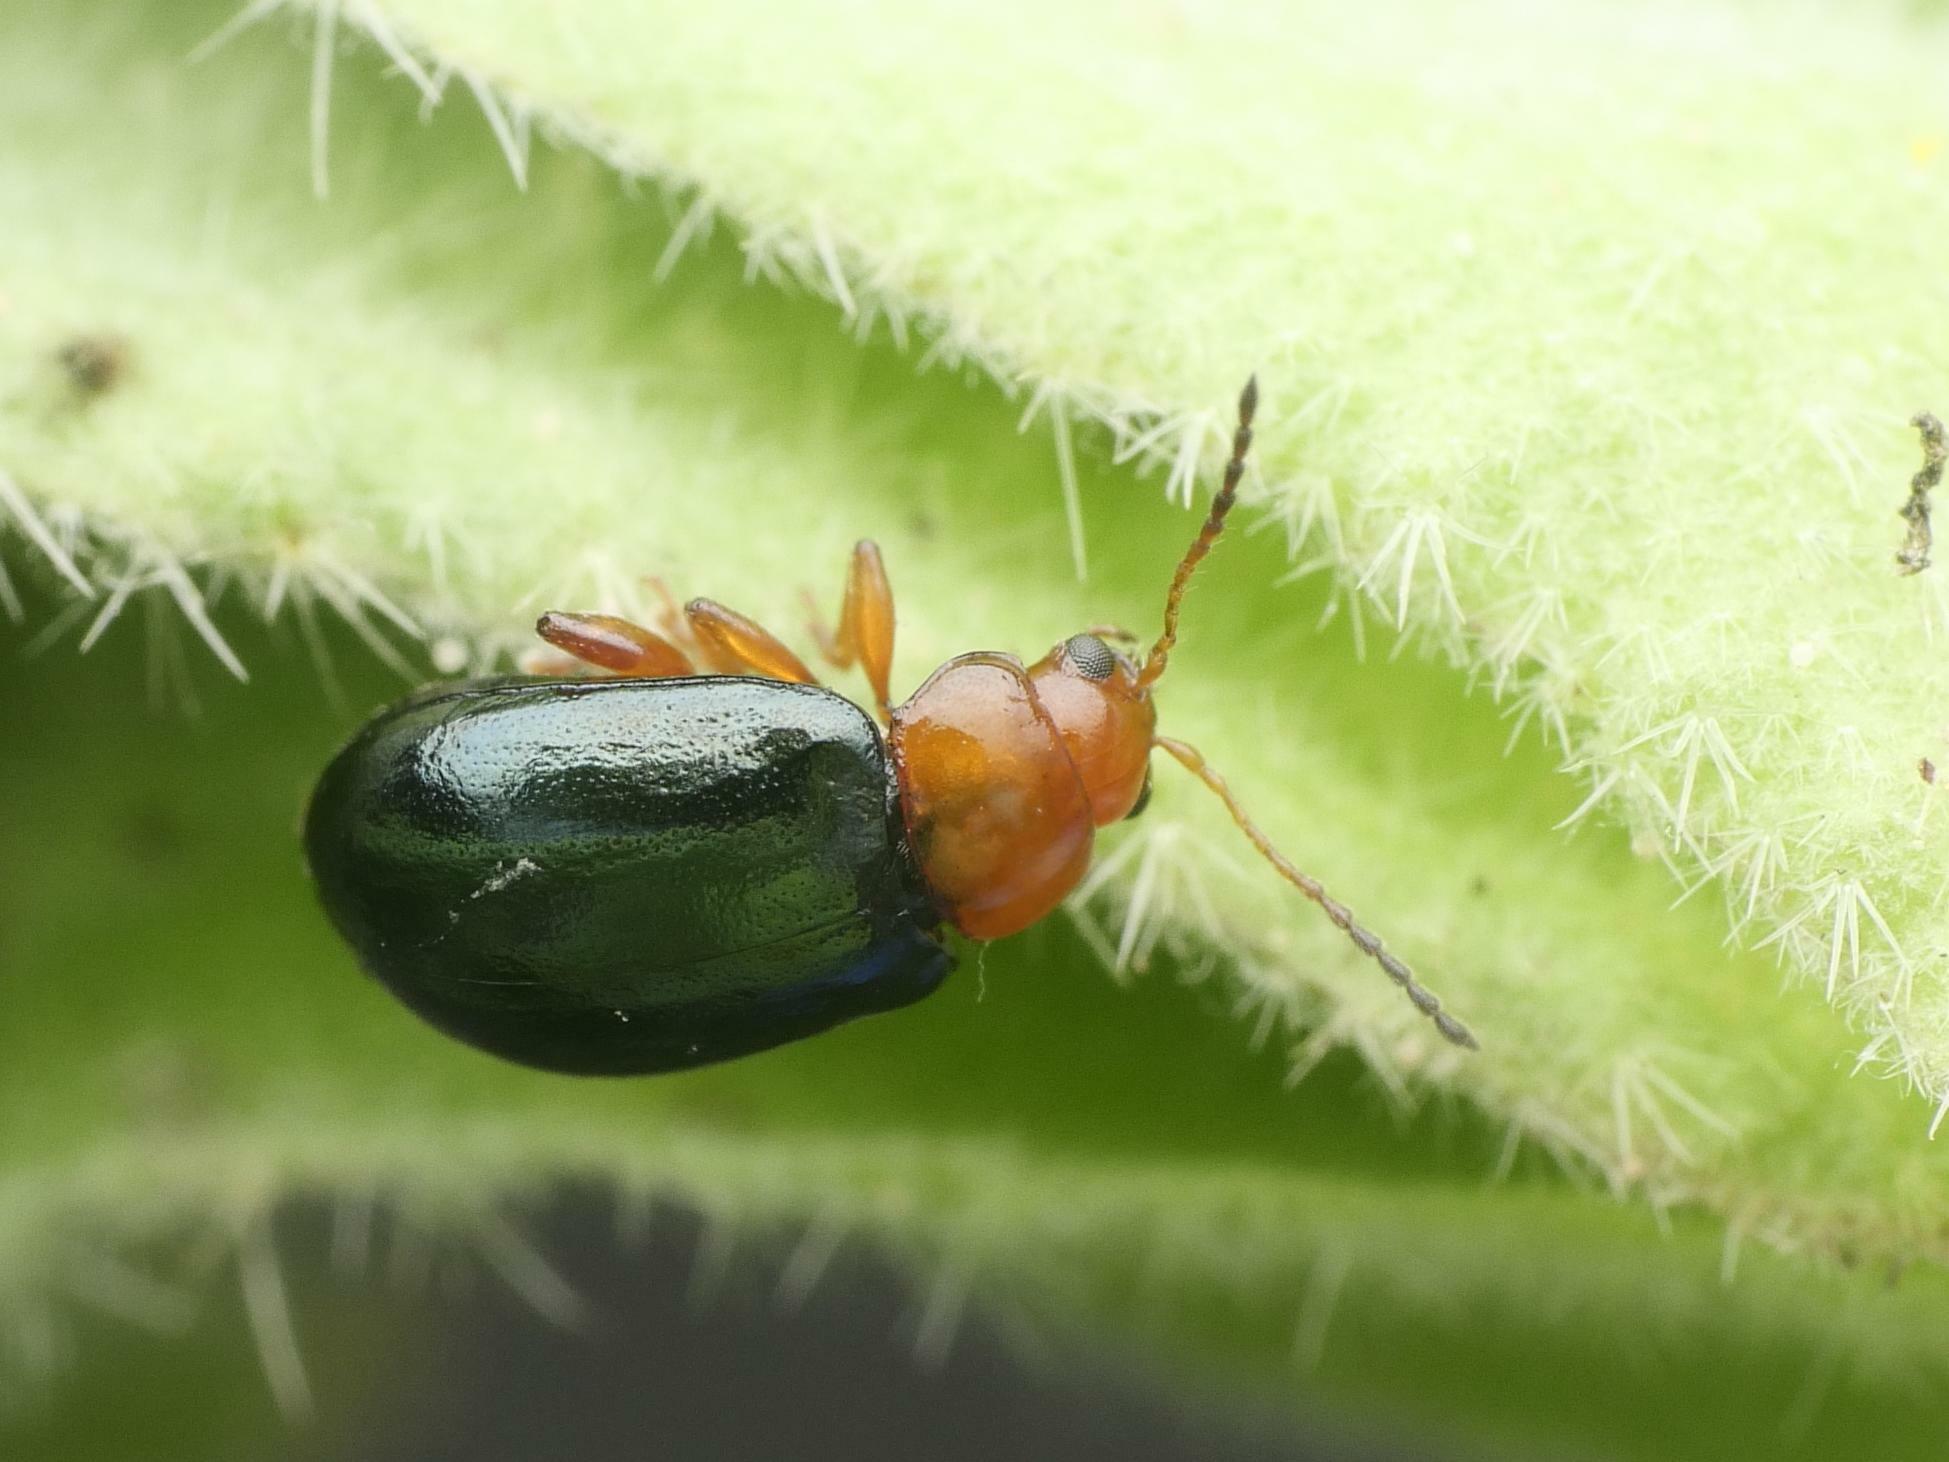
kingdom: Animalia
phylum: Arthropoda
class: Insecta
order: Coleoptera
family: Chrysomelidae
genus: Podagrica
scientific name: Podagrica fuscicornis
